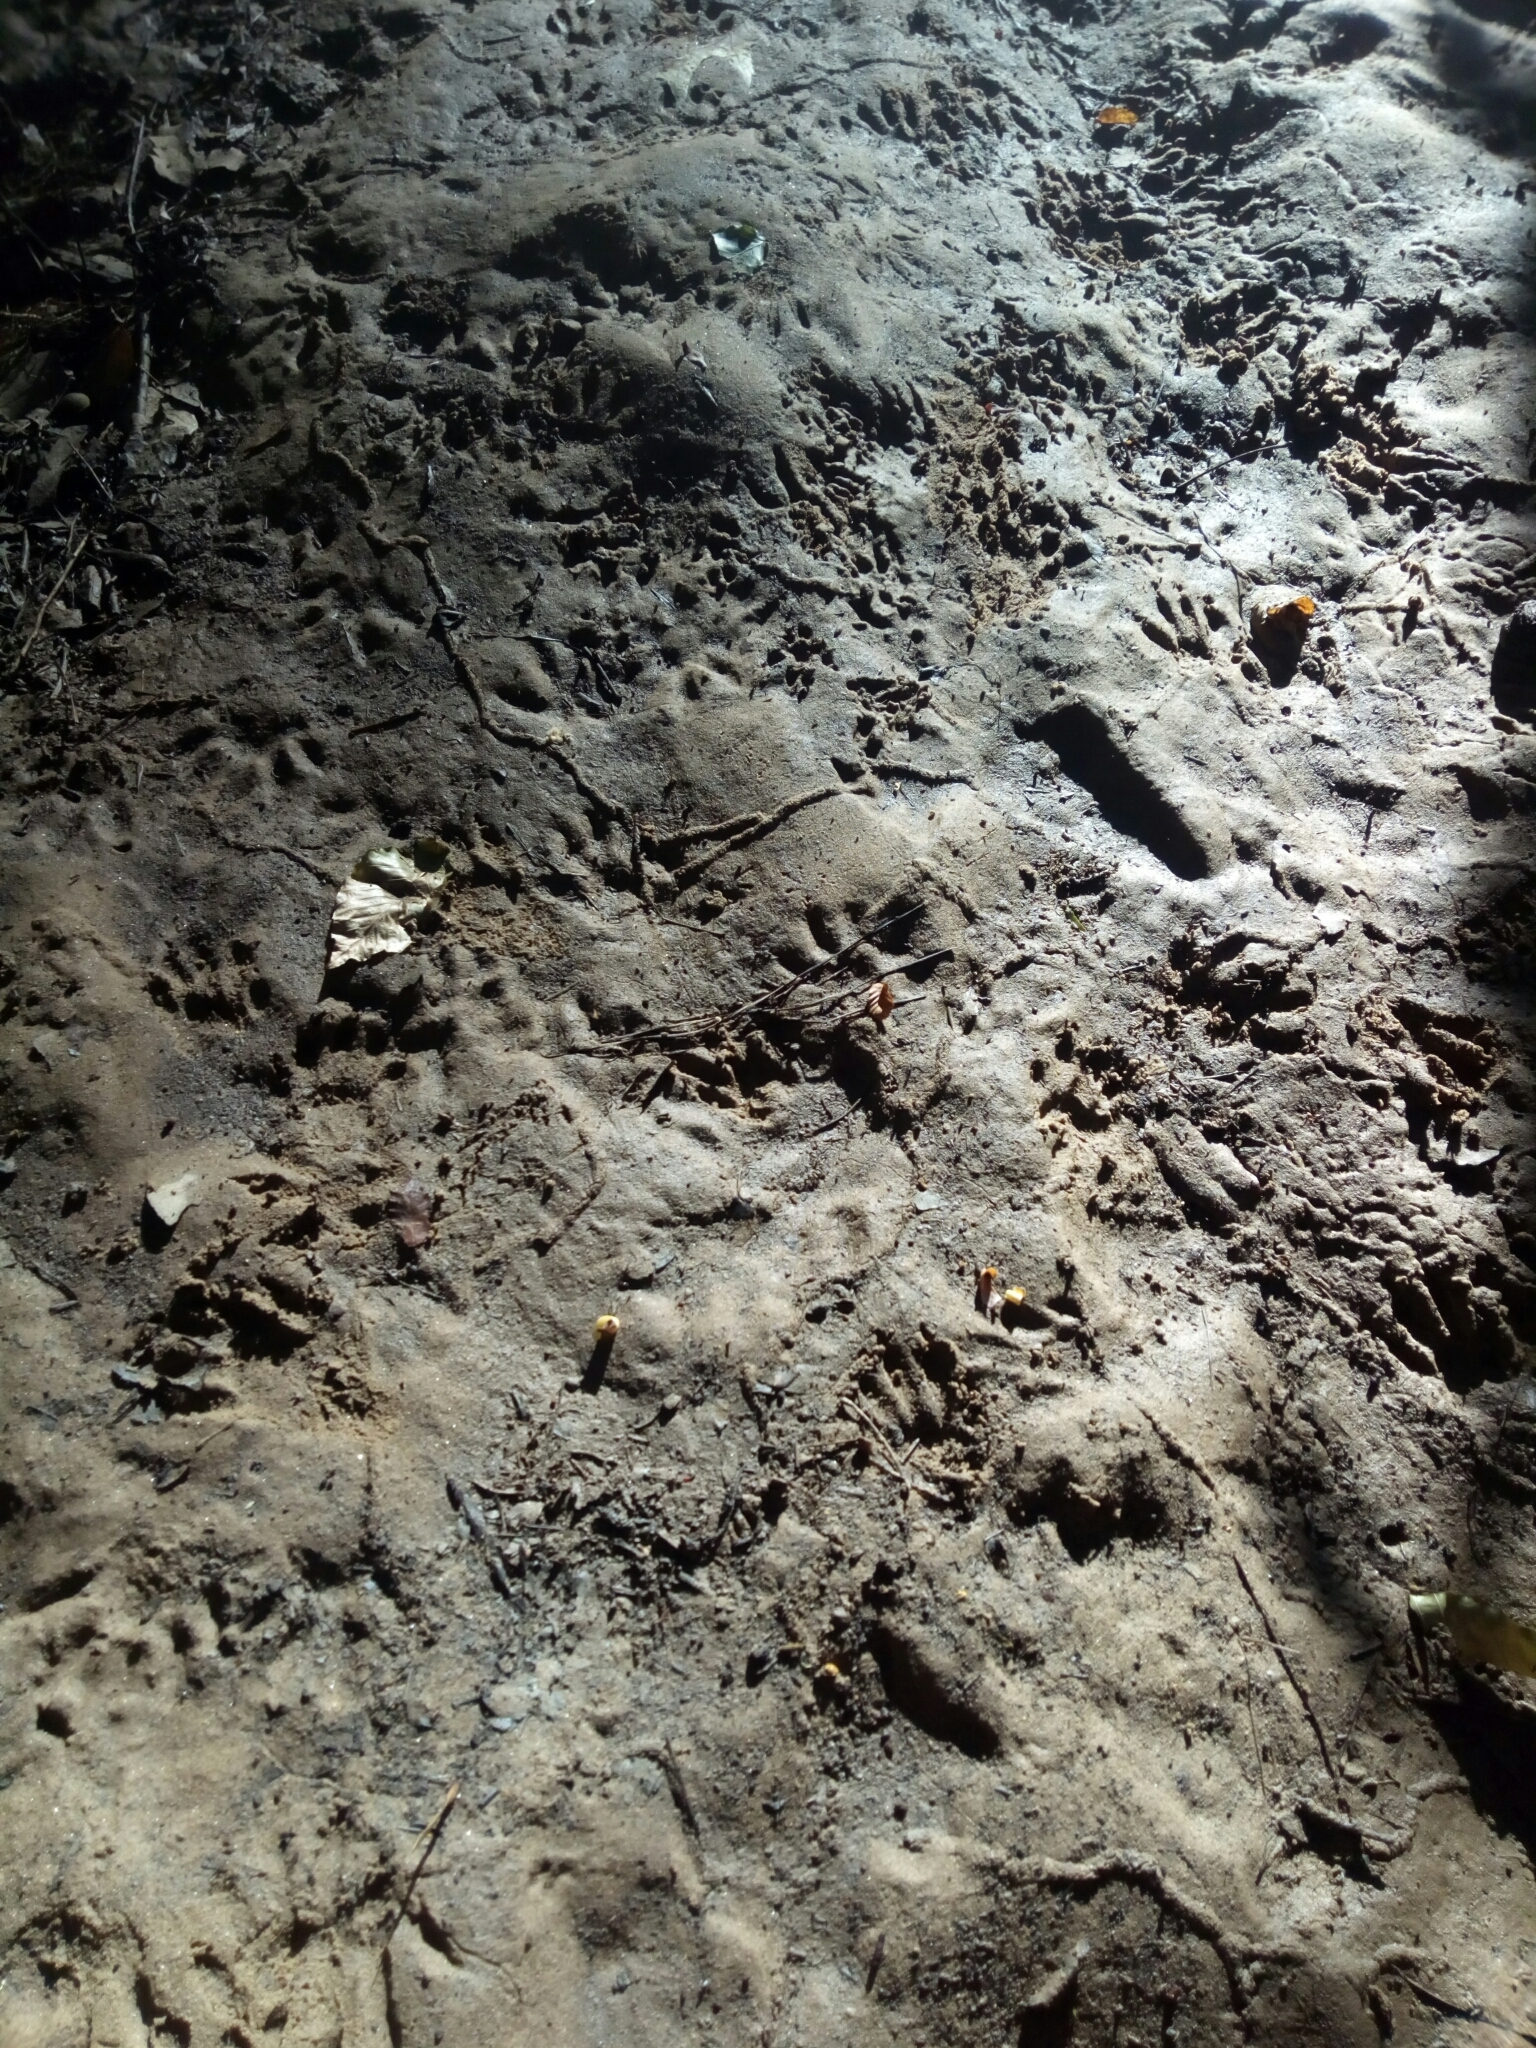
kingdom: Animalia
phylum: Chordata
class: Mammalia
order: Carnivora
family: Procyonidae
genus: Procyon
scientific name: Procyon lotor
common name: Raccoon
